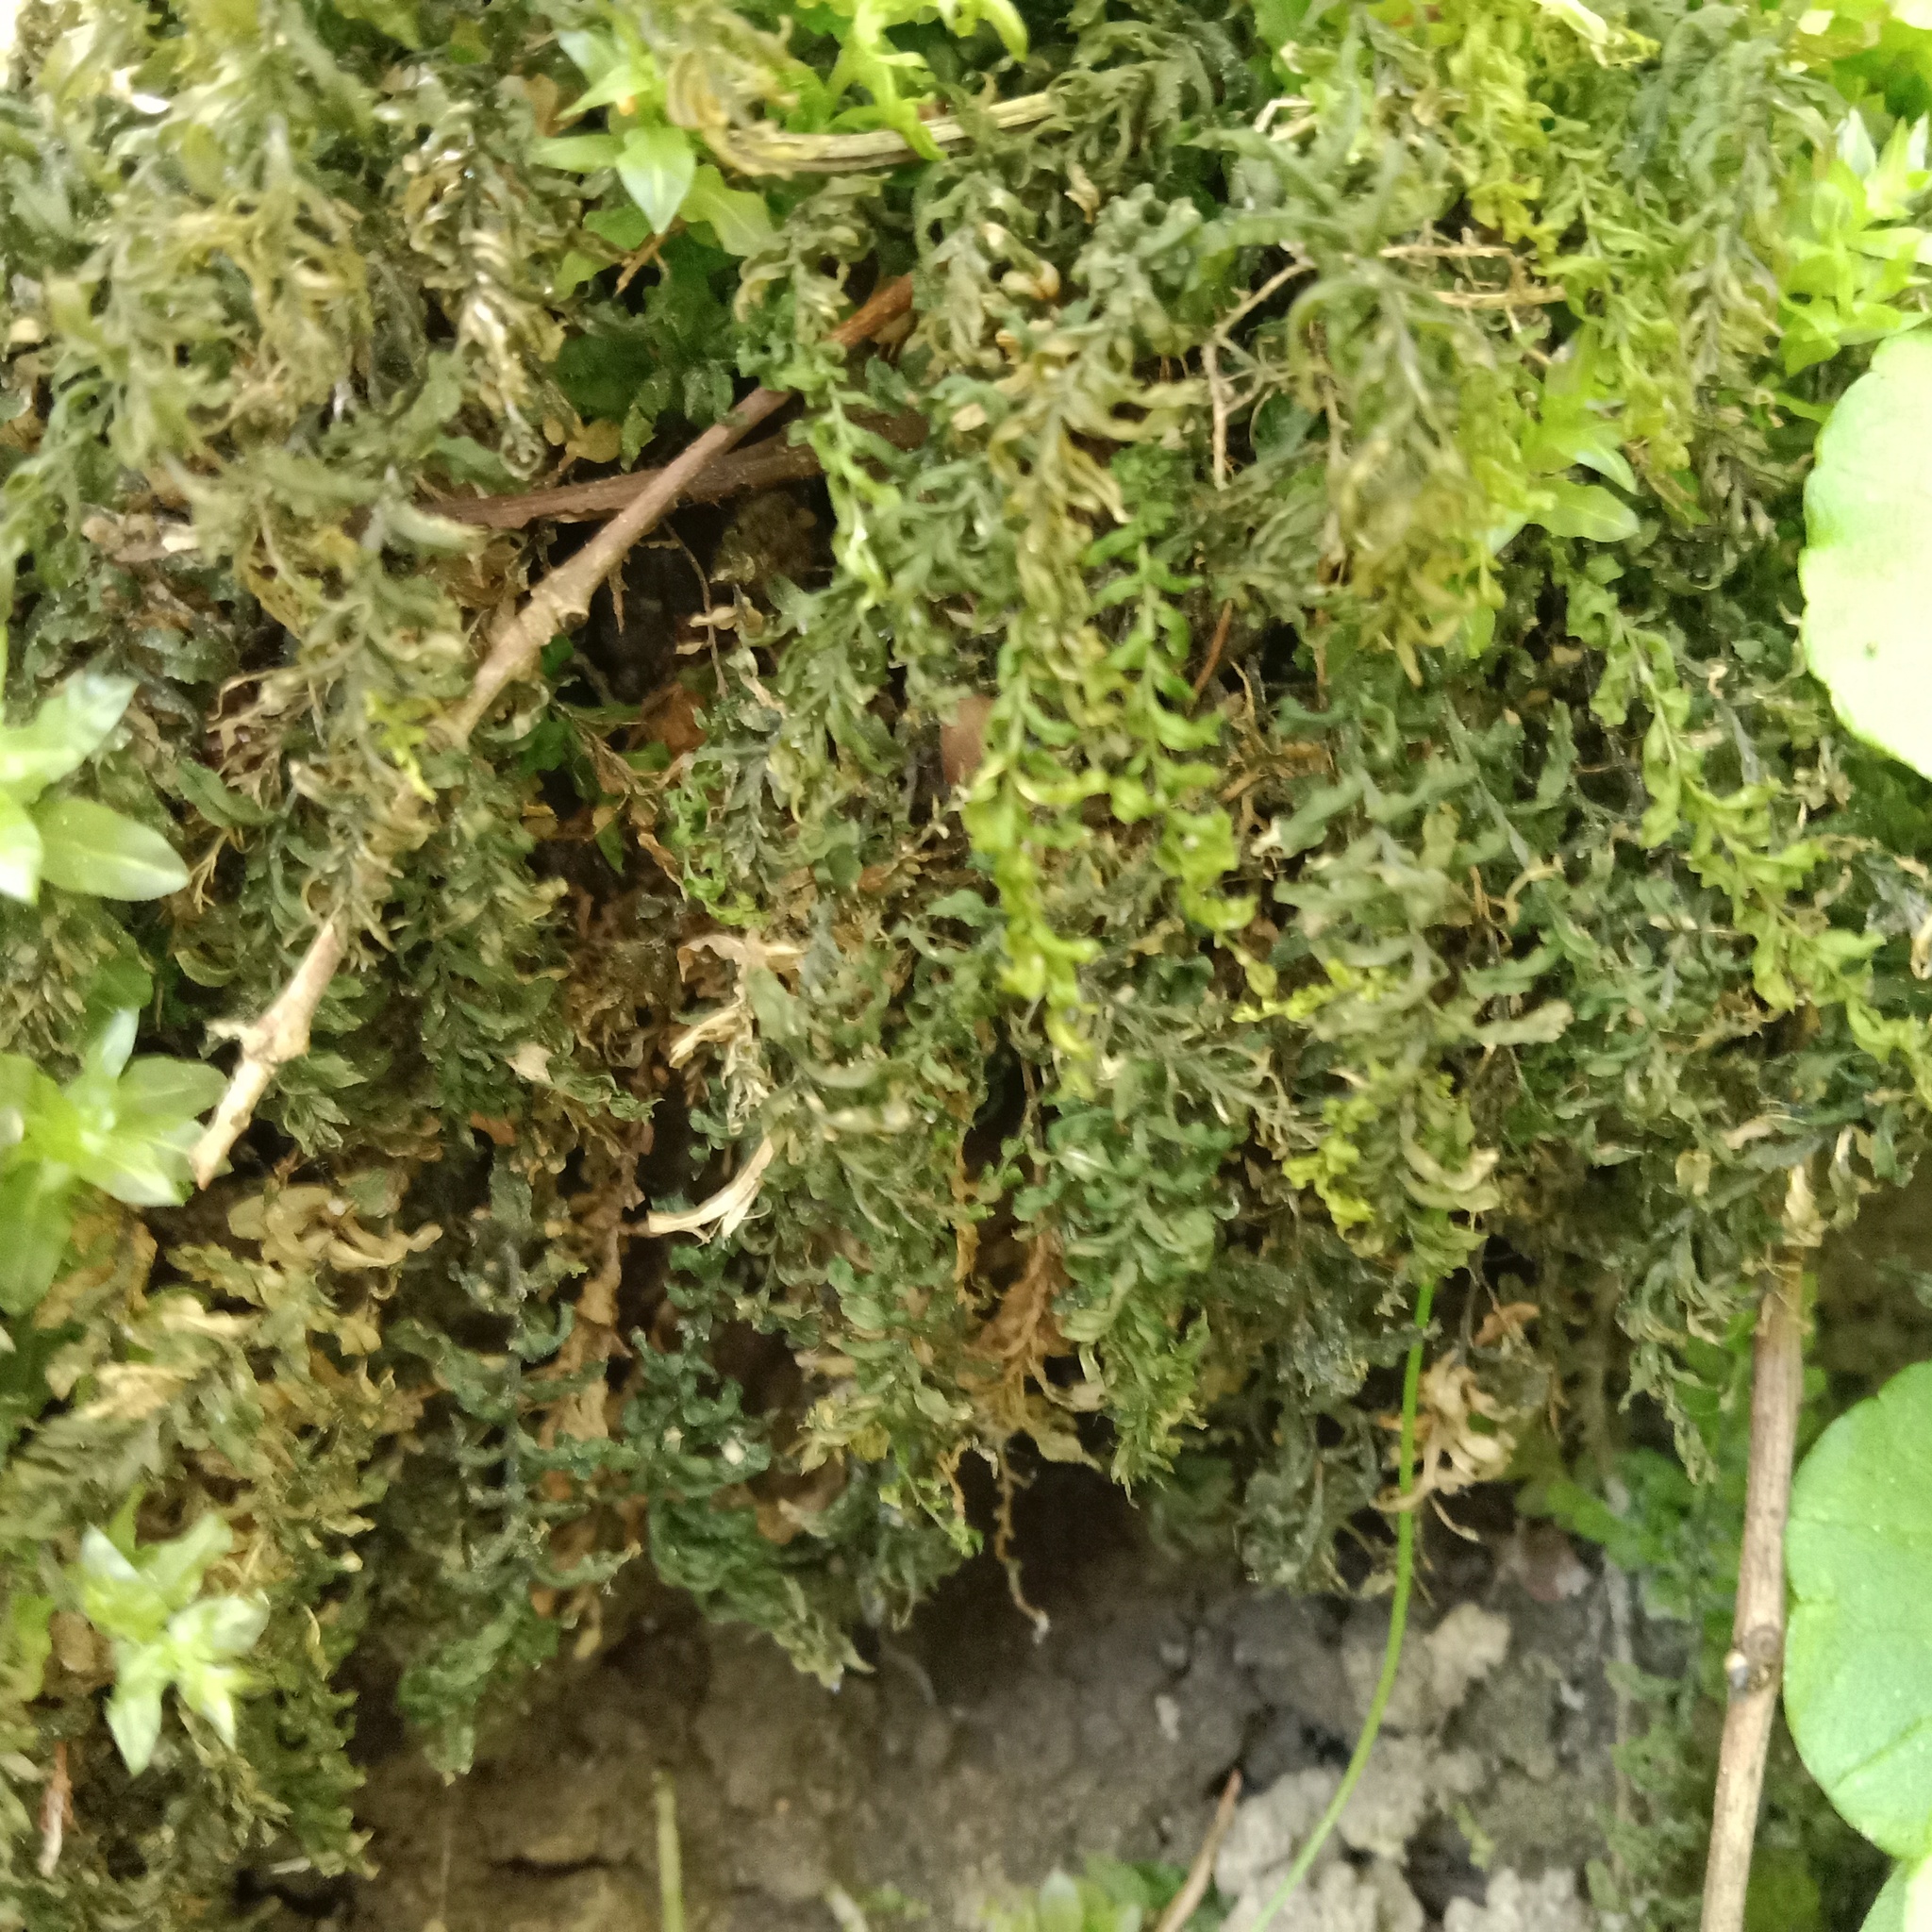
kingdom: Plantae
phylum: Bryophyta
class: Bryopsida
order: Bryales
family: Mniaceae
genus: Plagiomnium
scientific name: Plagiomnium undulatum
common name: Hart's-tongue thyme-moss
